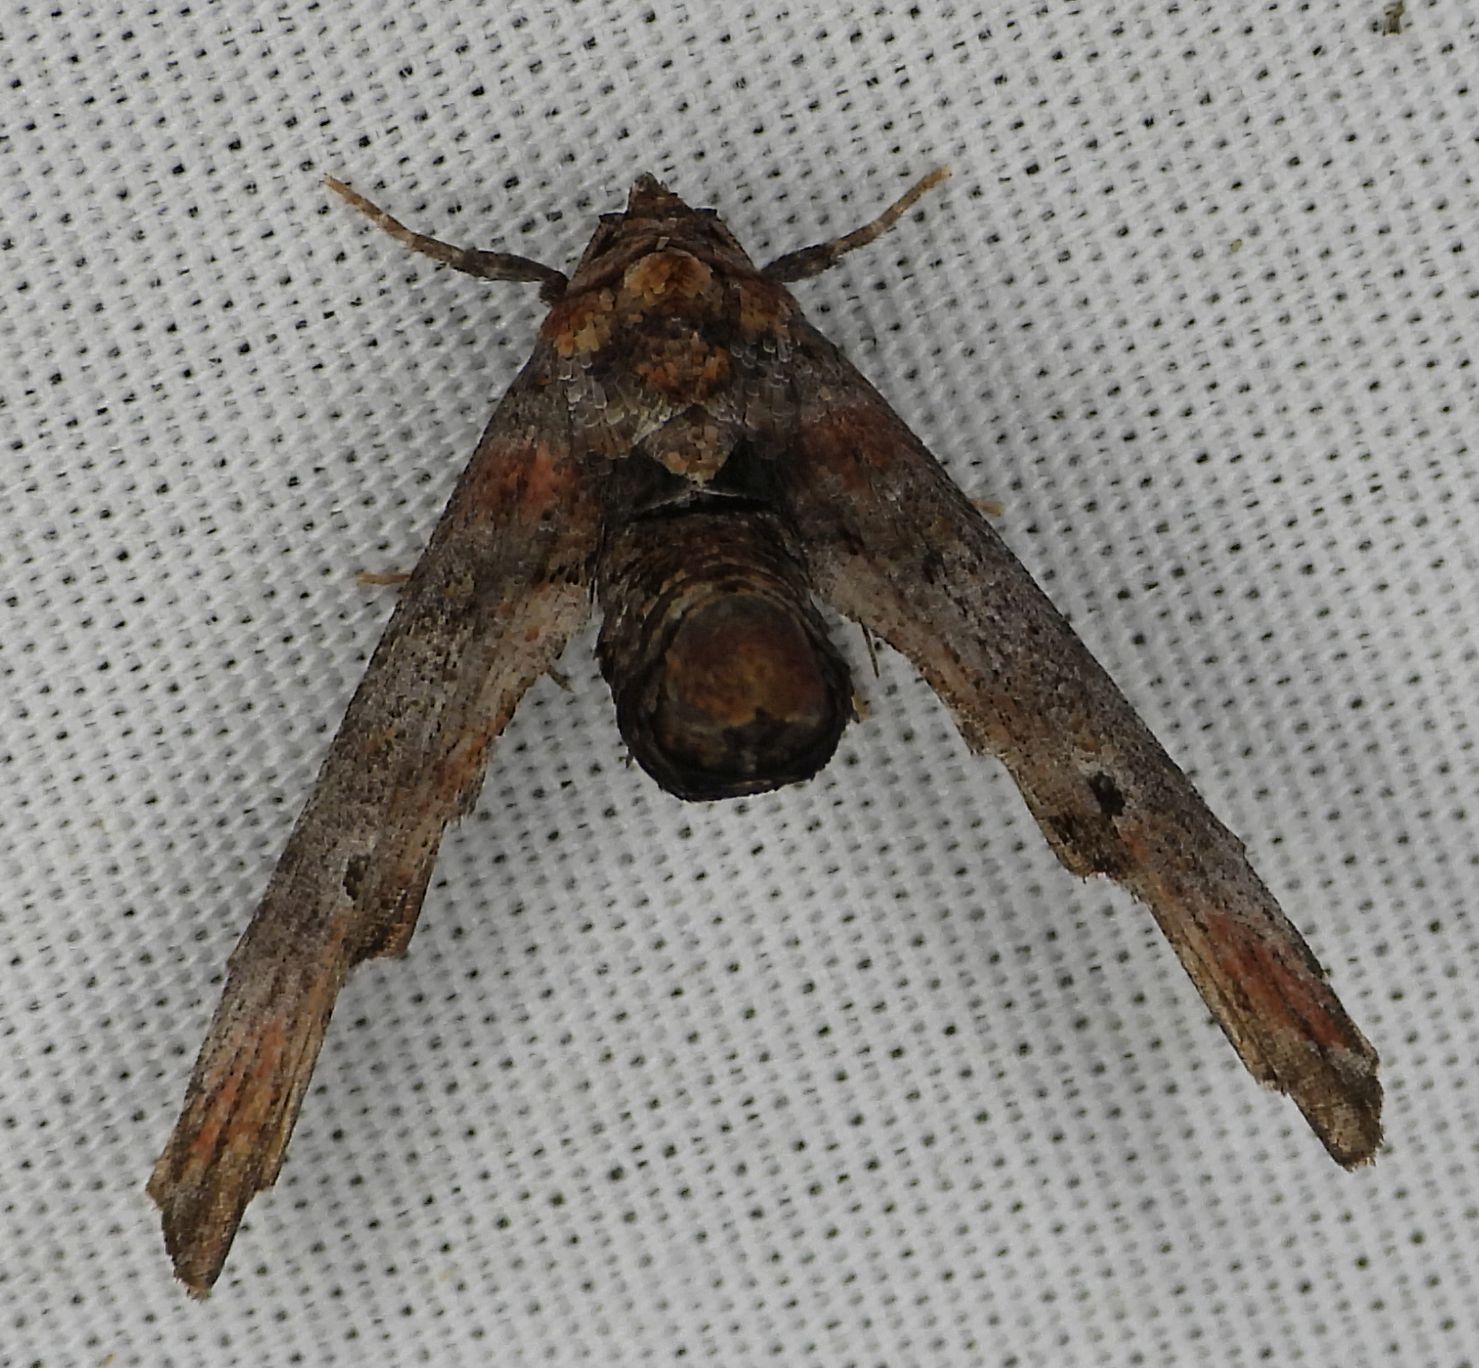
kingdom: Animalia
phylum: Arthropoda
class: Insecta
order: Lepidoptera
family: Euteliidae
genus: Marathyssa
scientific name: Marathyssa inficita
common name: Dark marathyssa moth
